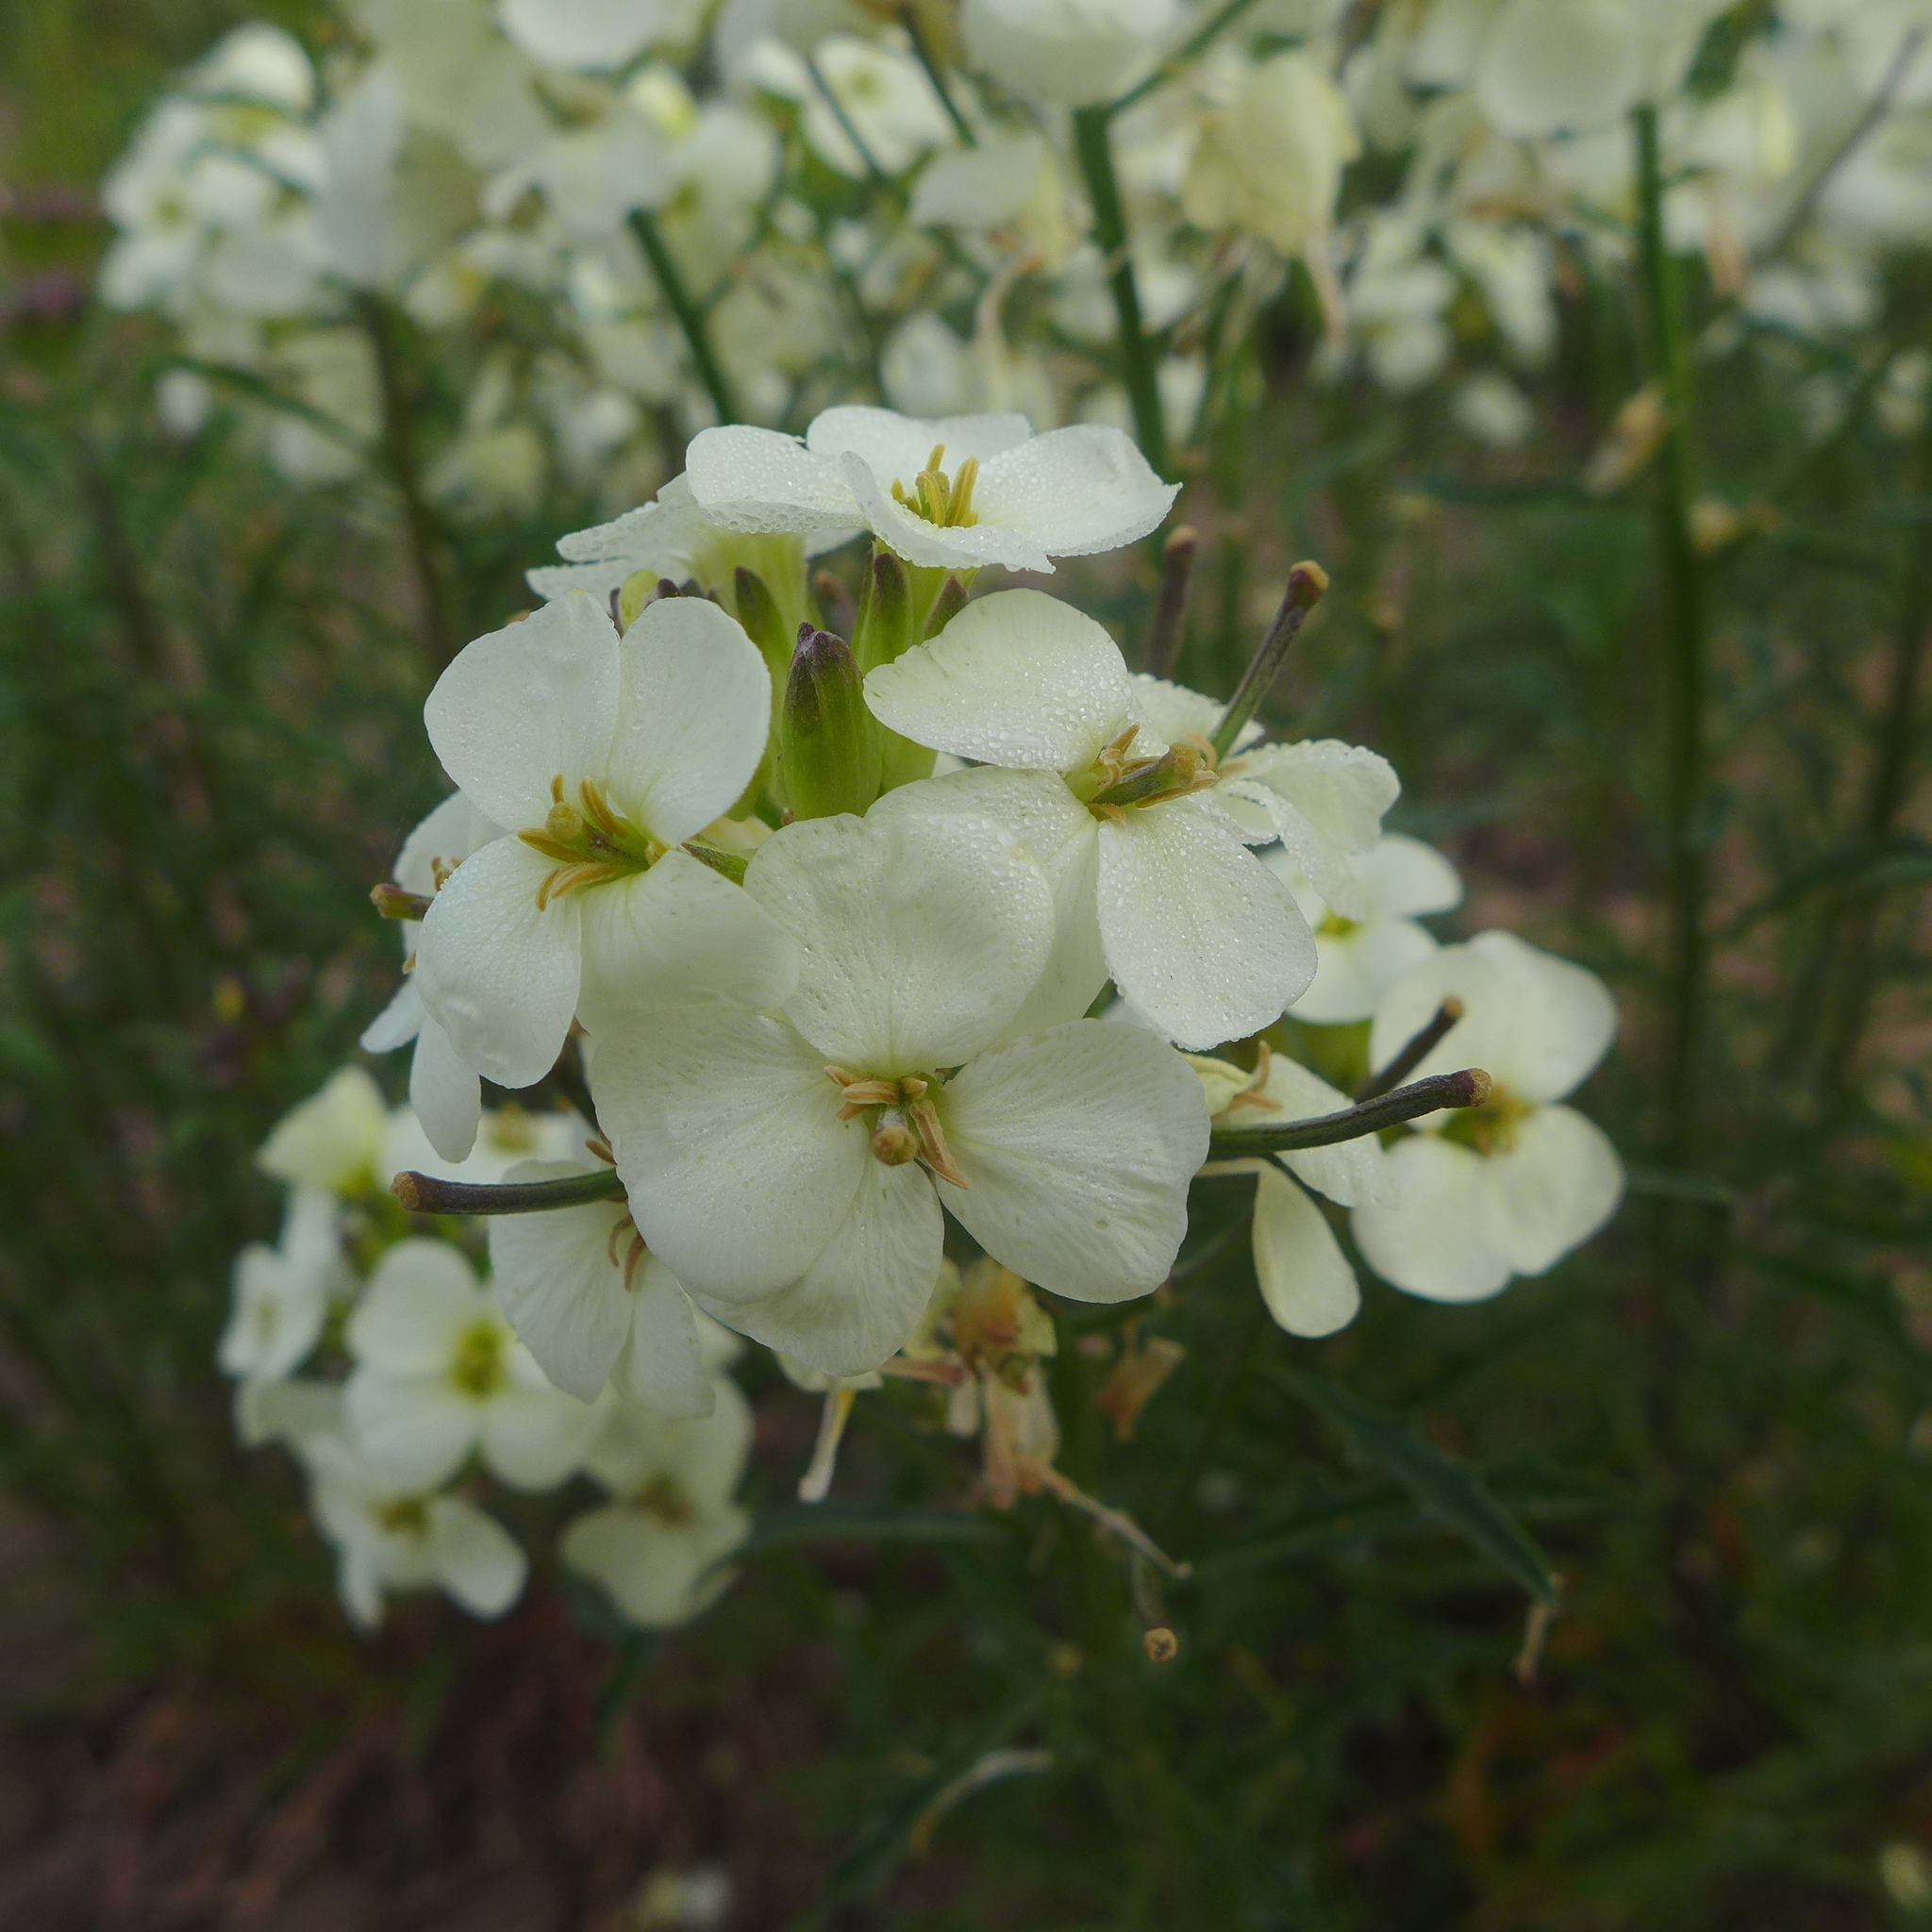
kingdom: Plantae
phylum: Tracheophyta
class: Magnoliopsida
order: Brassicales
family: Brassicaceae
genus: Erysimum
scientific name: Erysimum franciscanum
